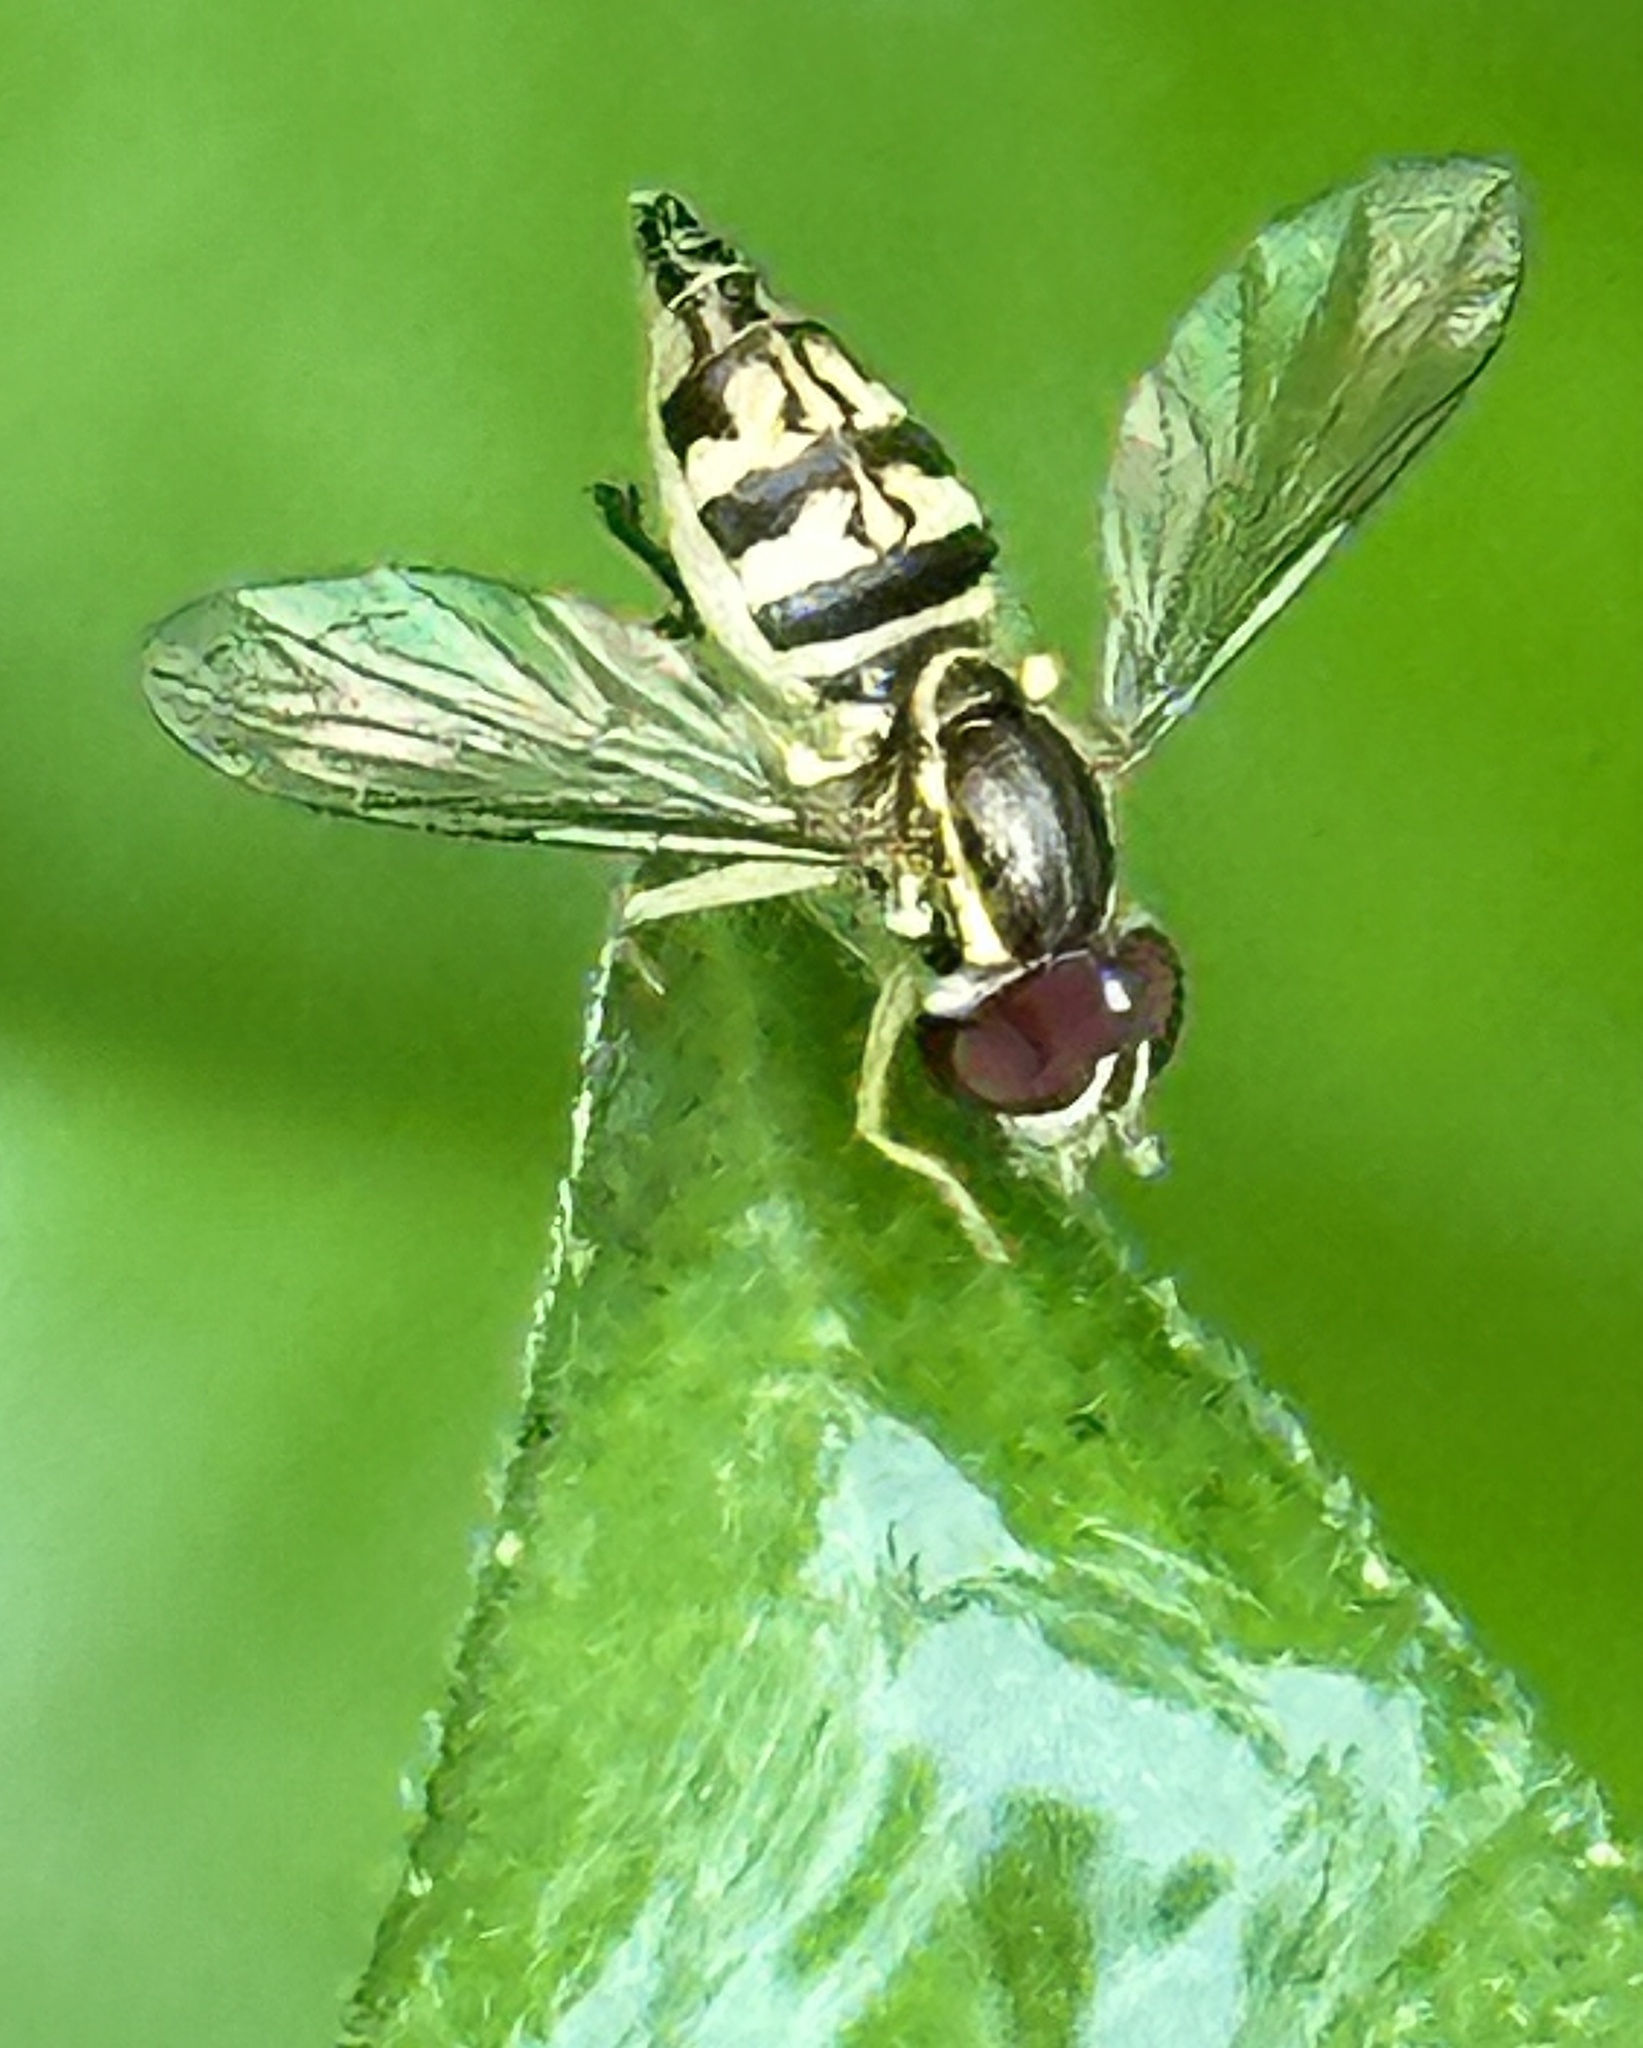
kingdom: Animalia
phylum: Arthropoda
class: Insecta
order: Diptera
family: Syrphidae
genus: Toxomerus
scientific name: Toxomerus geminatus
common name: Eastern calligrapher
